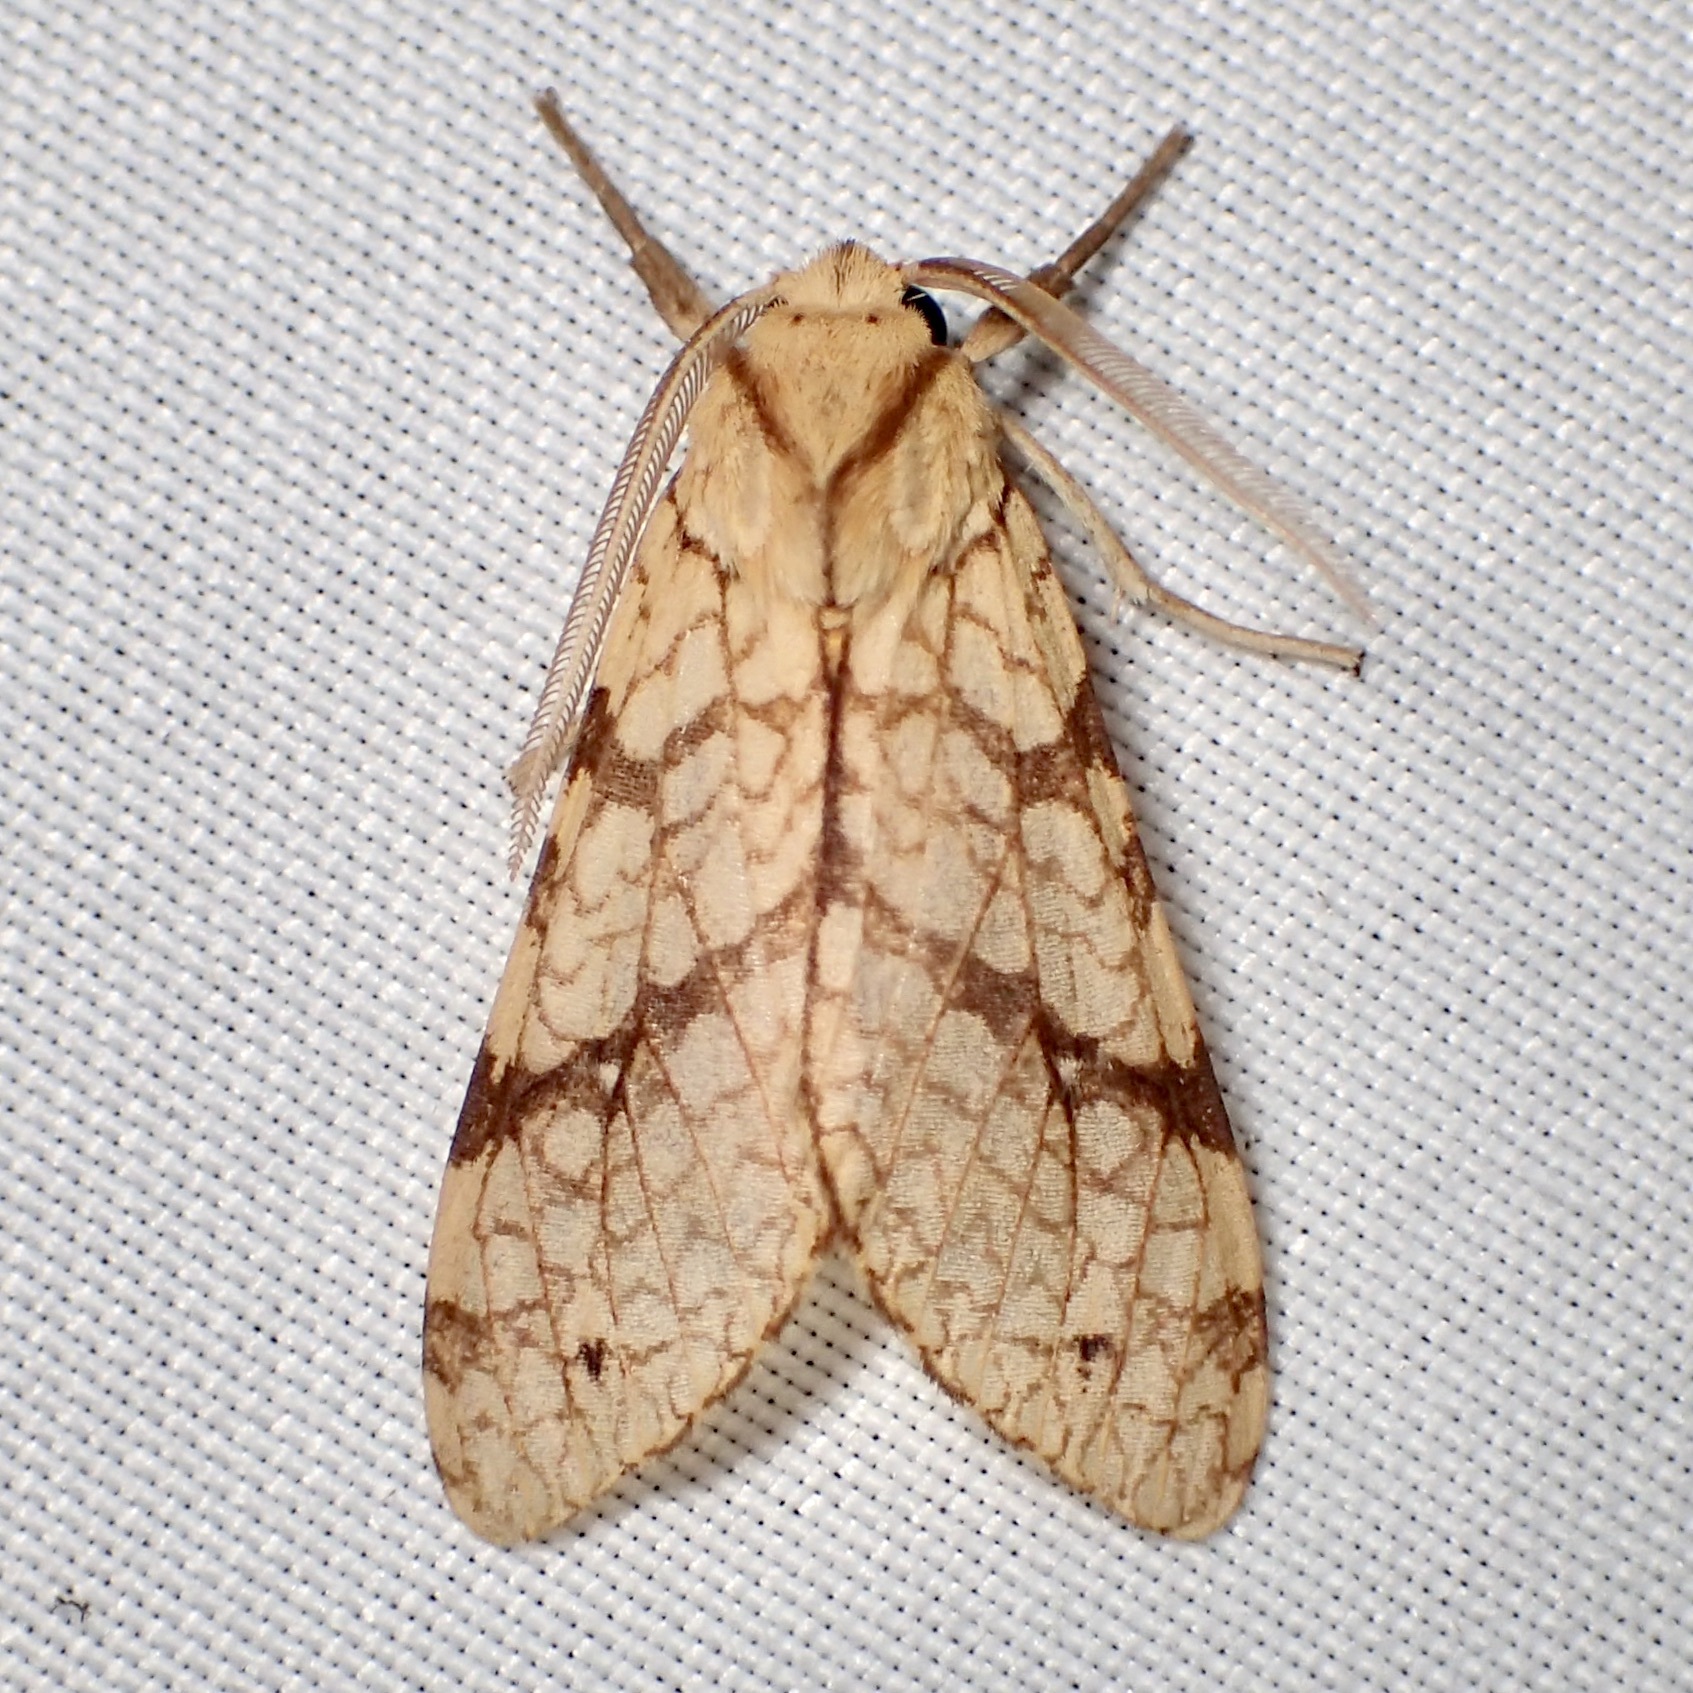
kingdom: Animalia
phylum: Arthropoda
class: Insecta
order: Lepidoptera
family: Erebidae
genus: Lophocampa
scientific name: Lophocampa annulosa
